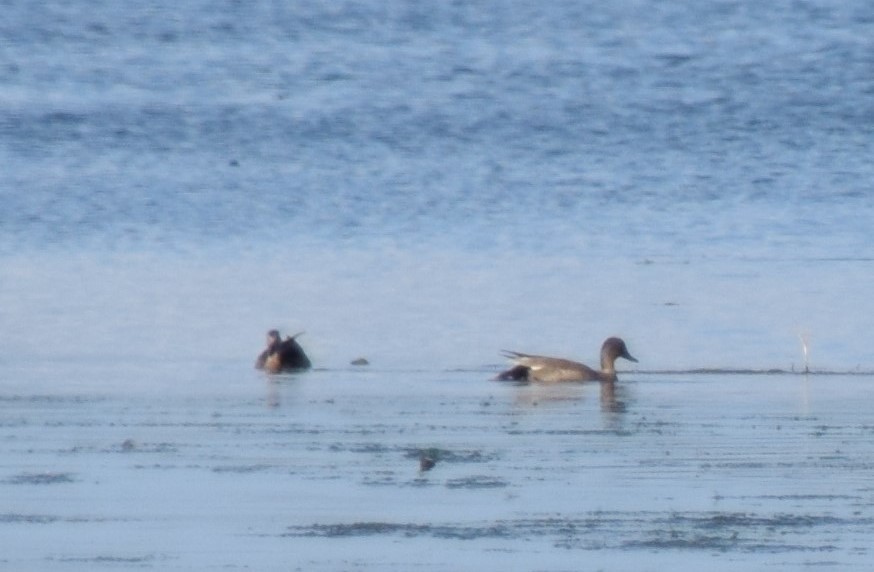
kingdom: Animalia
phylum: Chordata
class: Aves
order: Anseriformes
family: Anatidae
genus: Mareca
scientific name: Mareca strepera
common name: Gadwall
